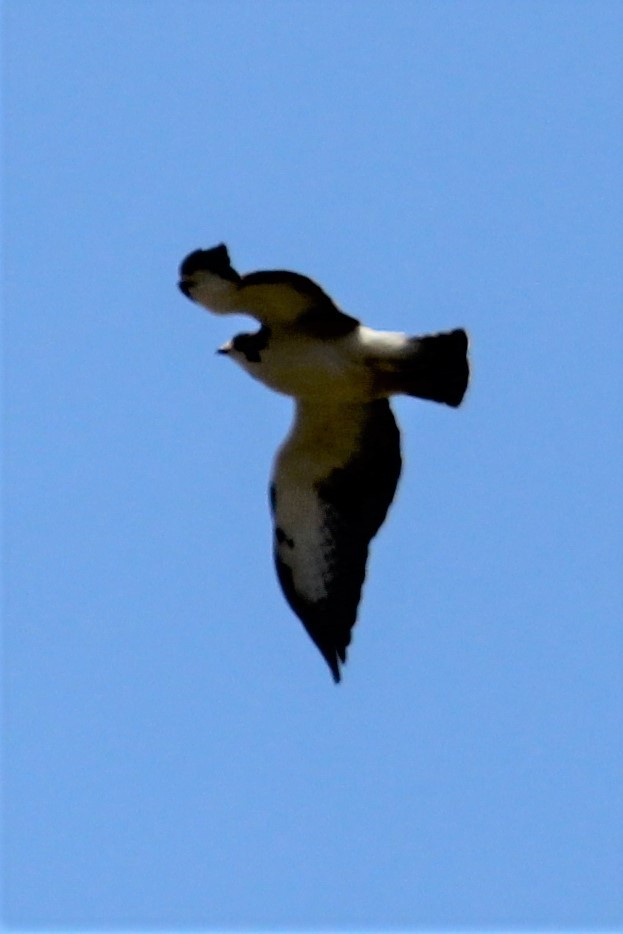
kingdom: Animalia
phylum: Chordata
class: Aves
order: Accipitriformes
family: Accipitridae
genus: Buteo
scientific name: Buteo brachyurus
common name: Short-tailed hawk
